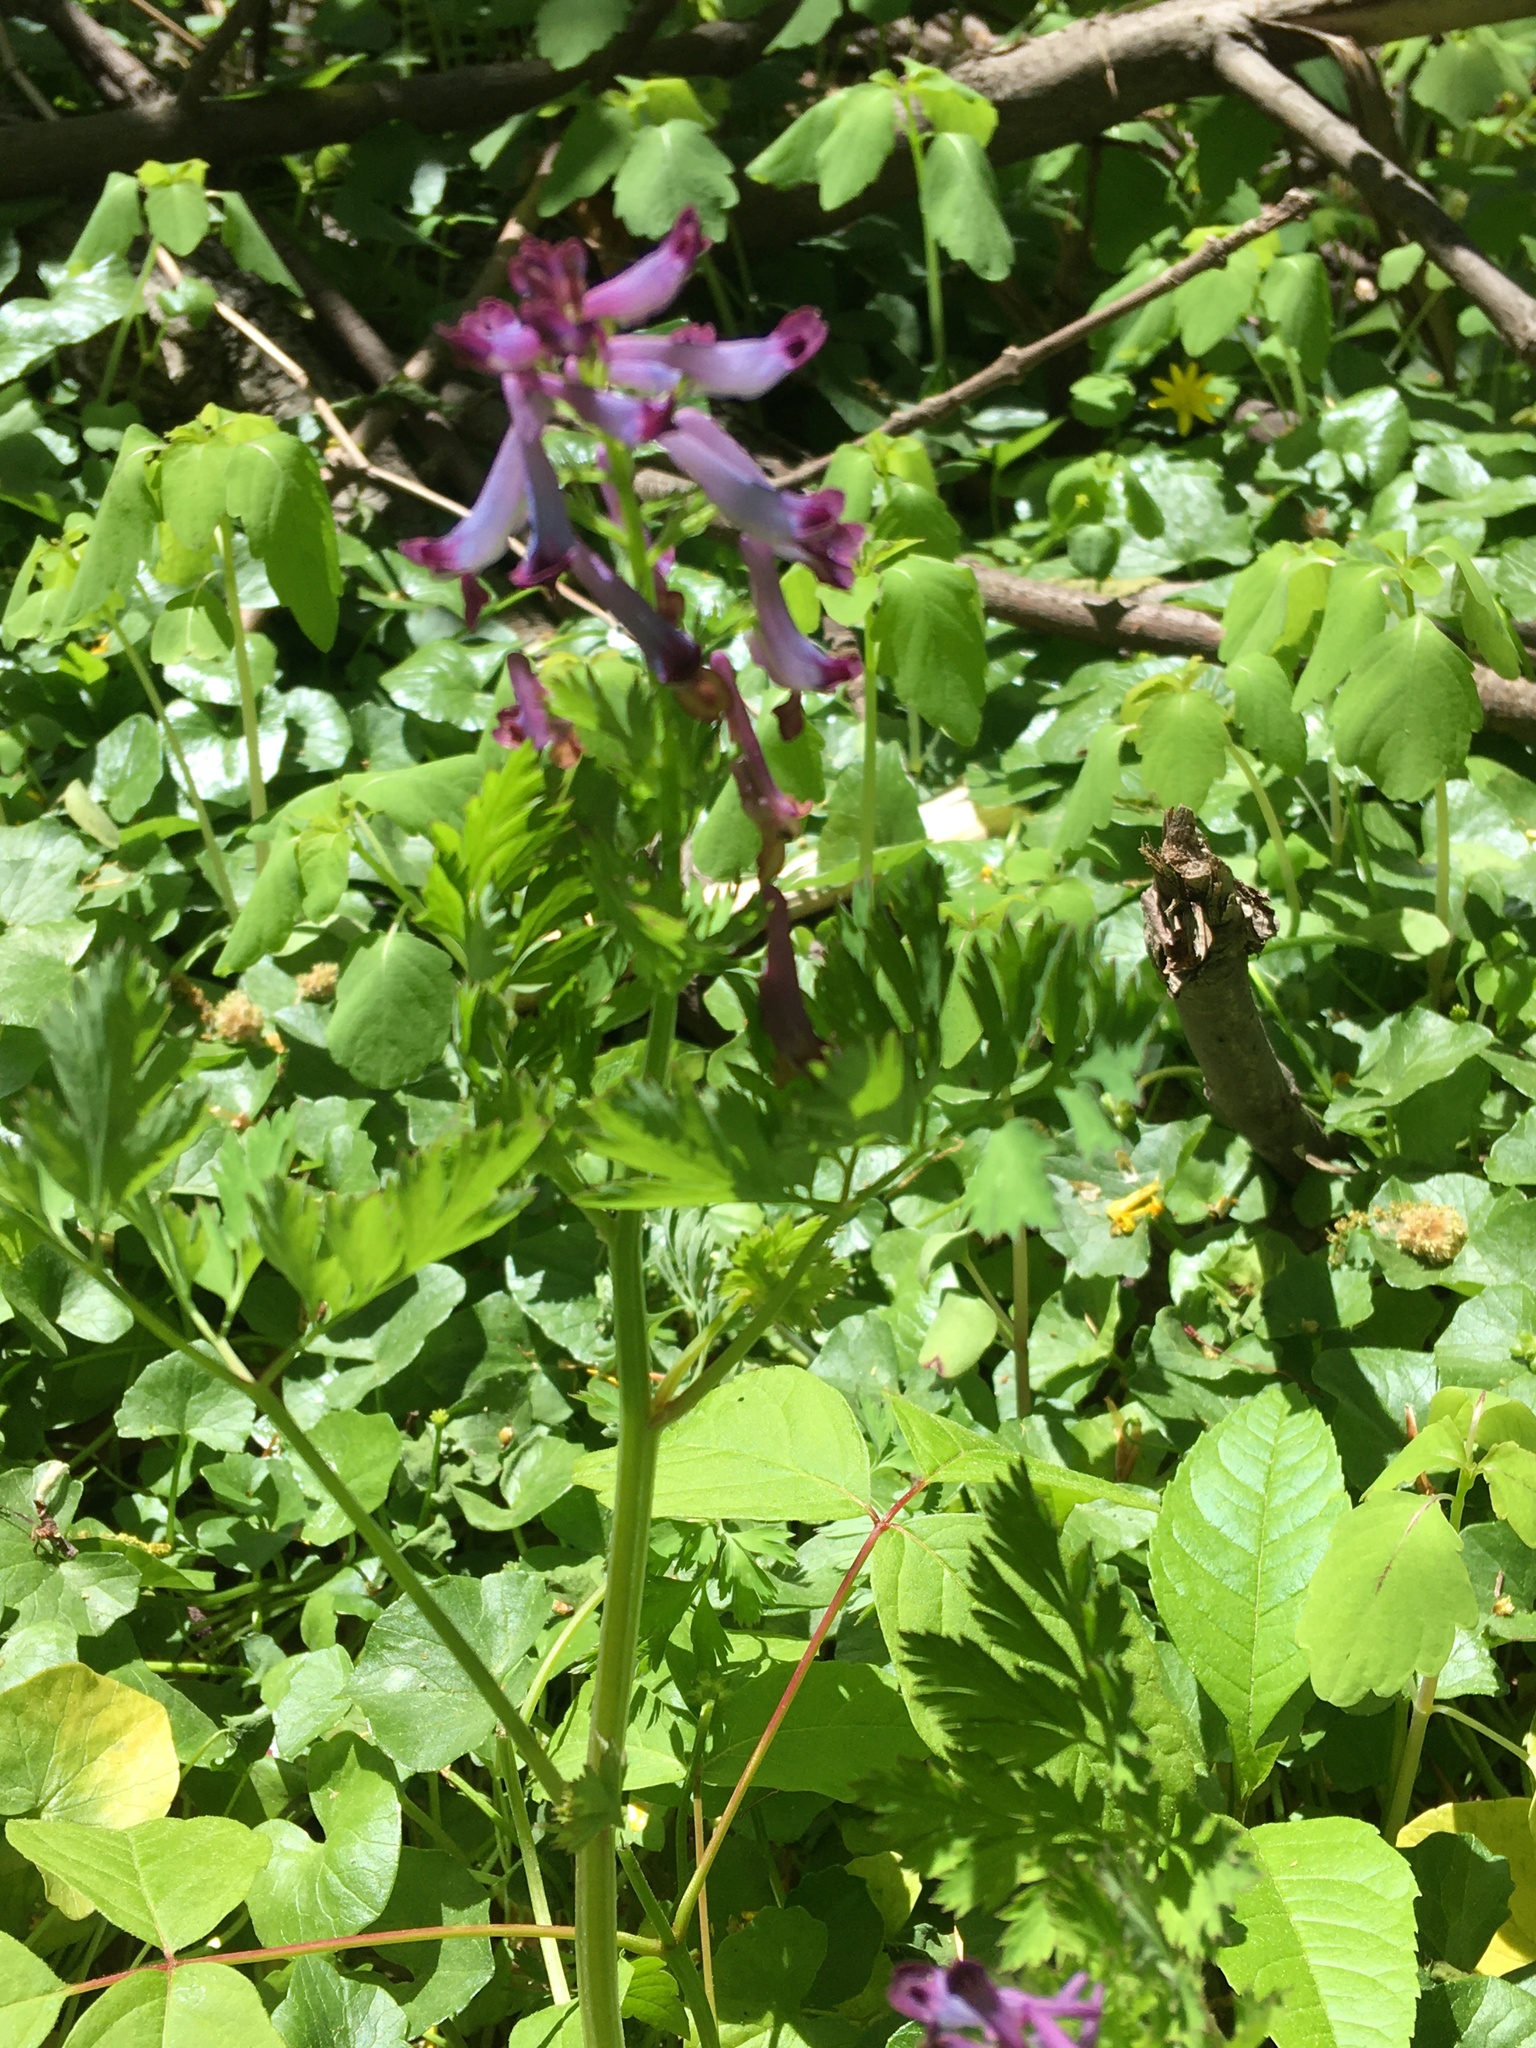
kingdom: Plantae
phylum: Tracheophyta
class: Magnoliopsida
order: Ranunculales
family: Papaveraceae
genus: Corydalis
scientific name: Corydalis incisa
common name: Incised fumewort
